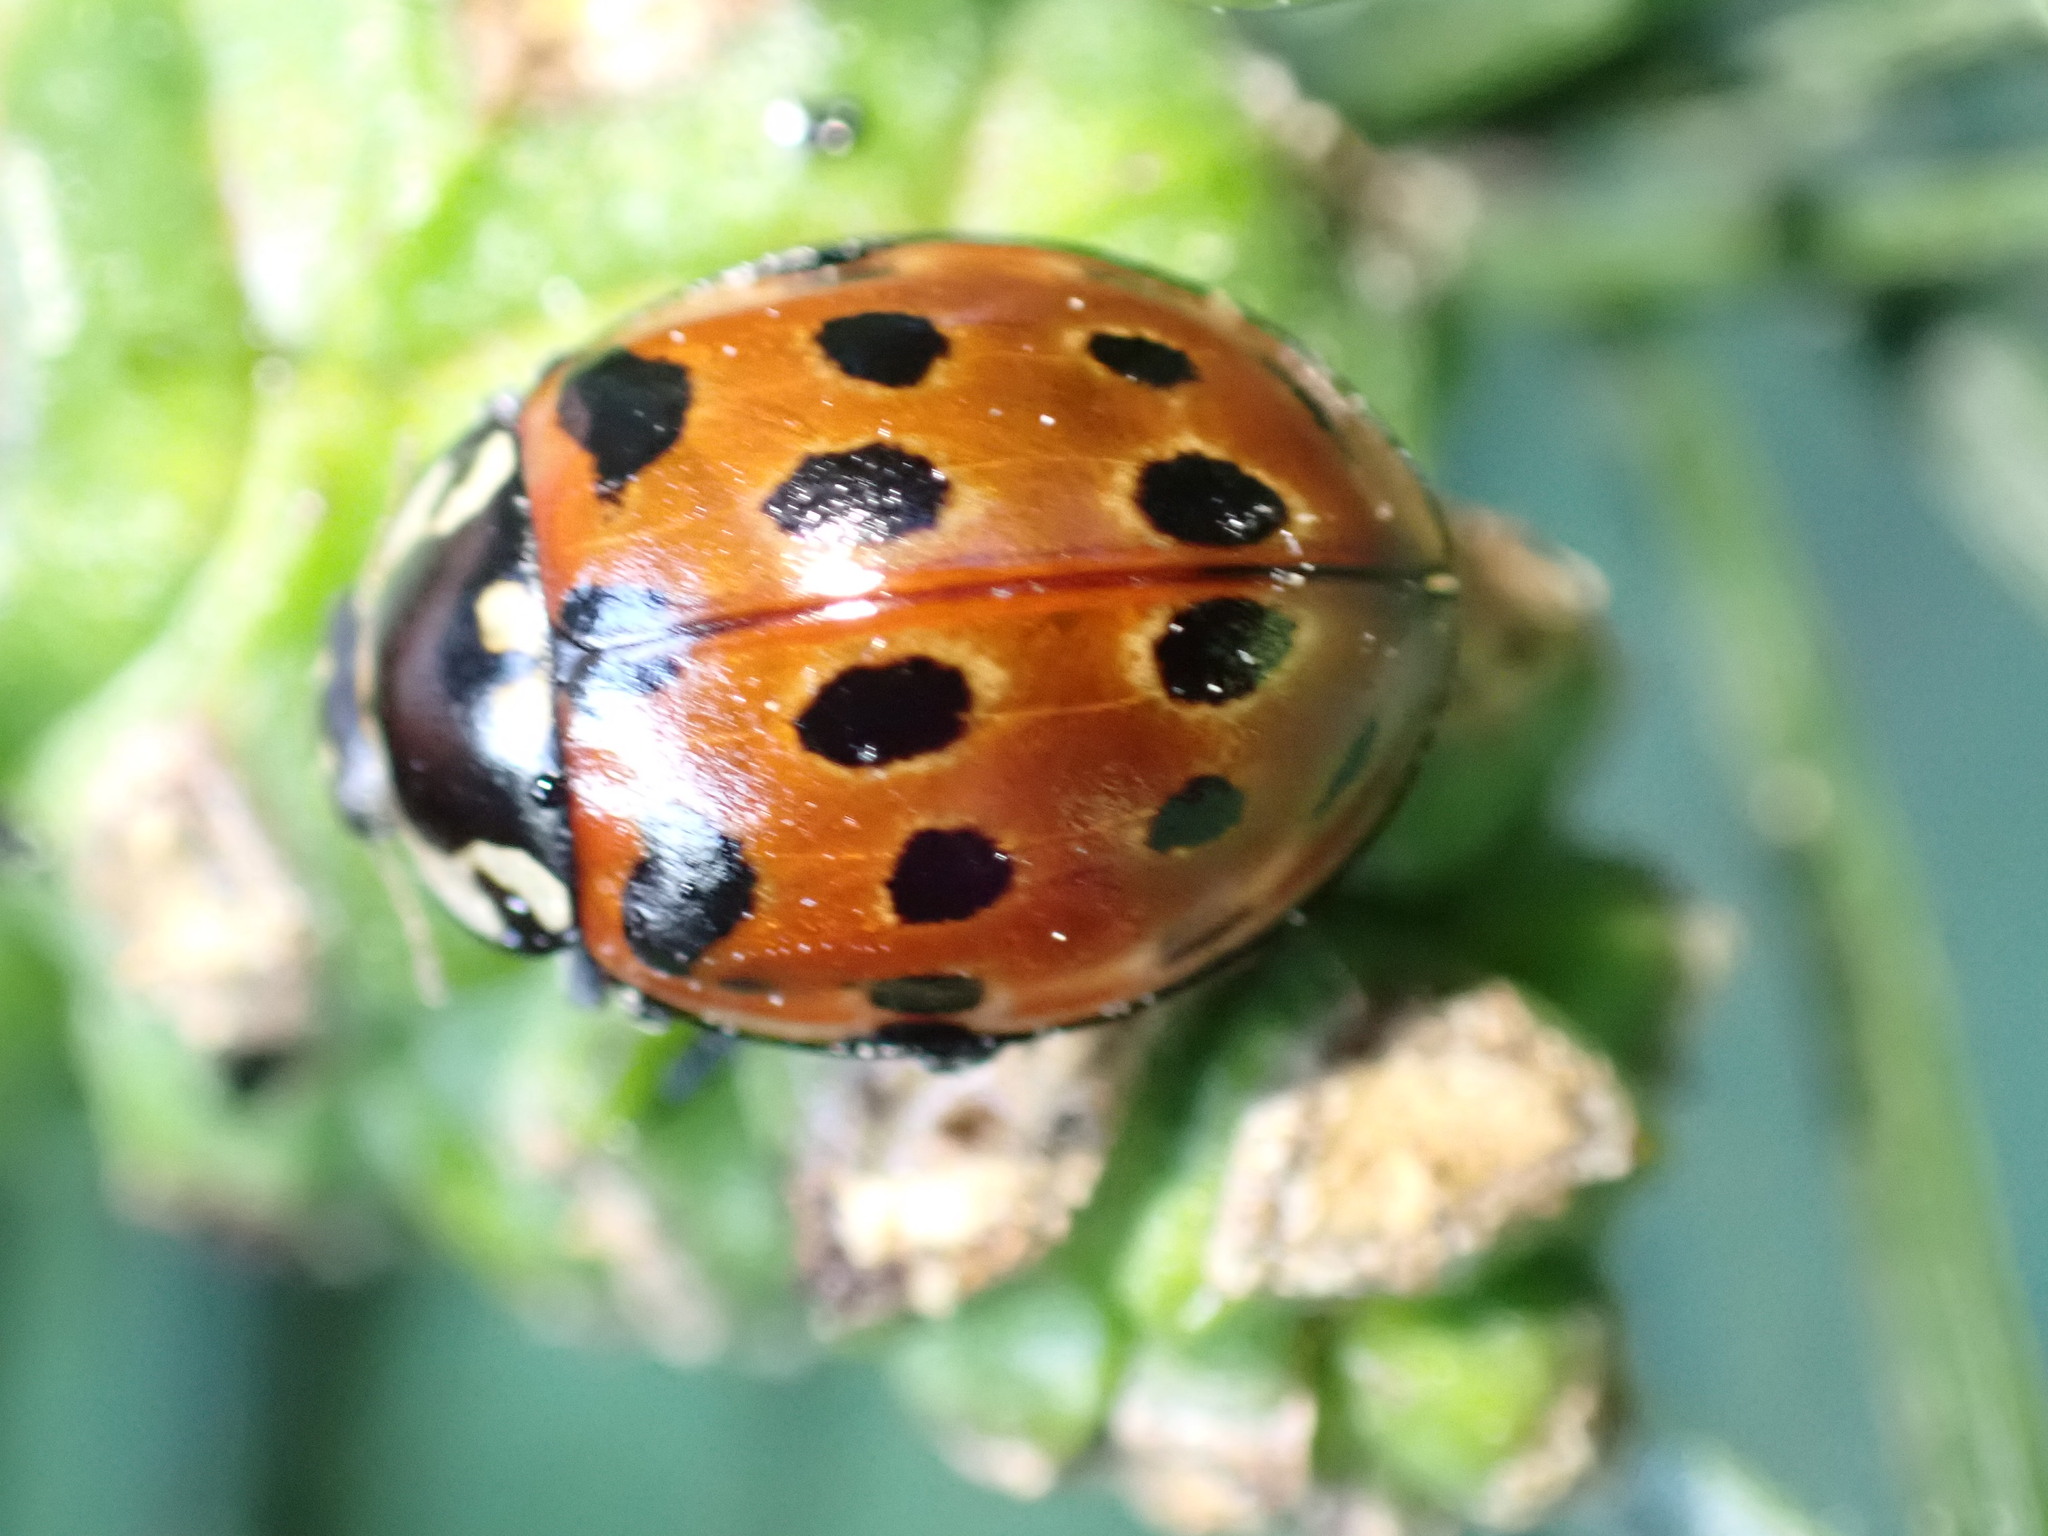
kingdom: Animalia
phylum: Arthropoda
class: Insecta
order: Coleoptera
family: Coccinellidae
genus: Anatis
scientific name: Anatis ocellata
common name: Eyed ladybird
